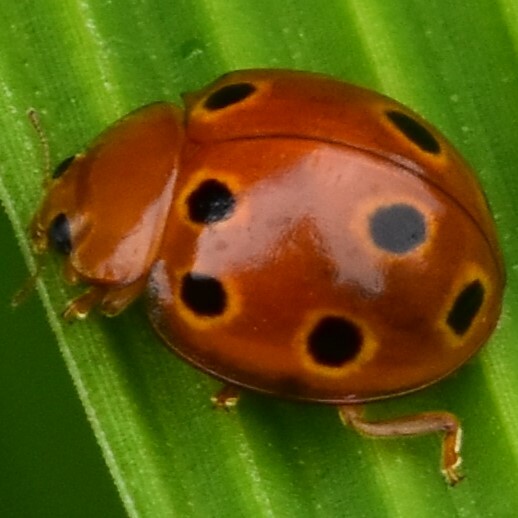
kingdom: Animalia
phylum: Arthropoda
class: Insecta
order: Coleoptera
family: Coccinellidae
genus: Microcaria
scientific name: Microcaria
